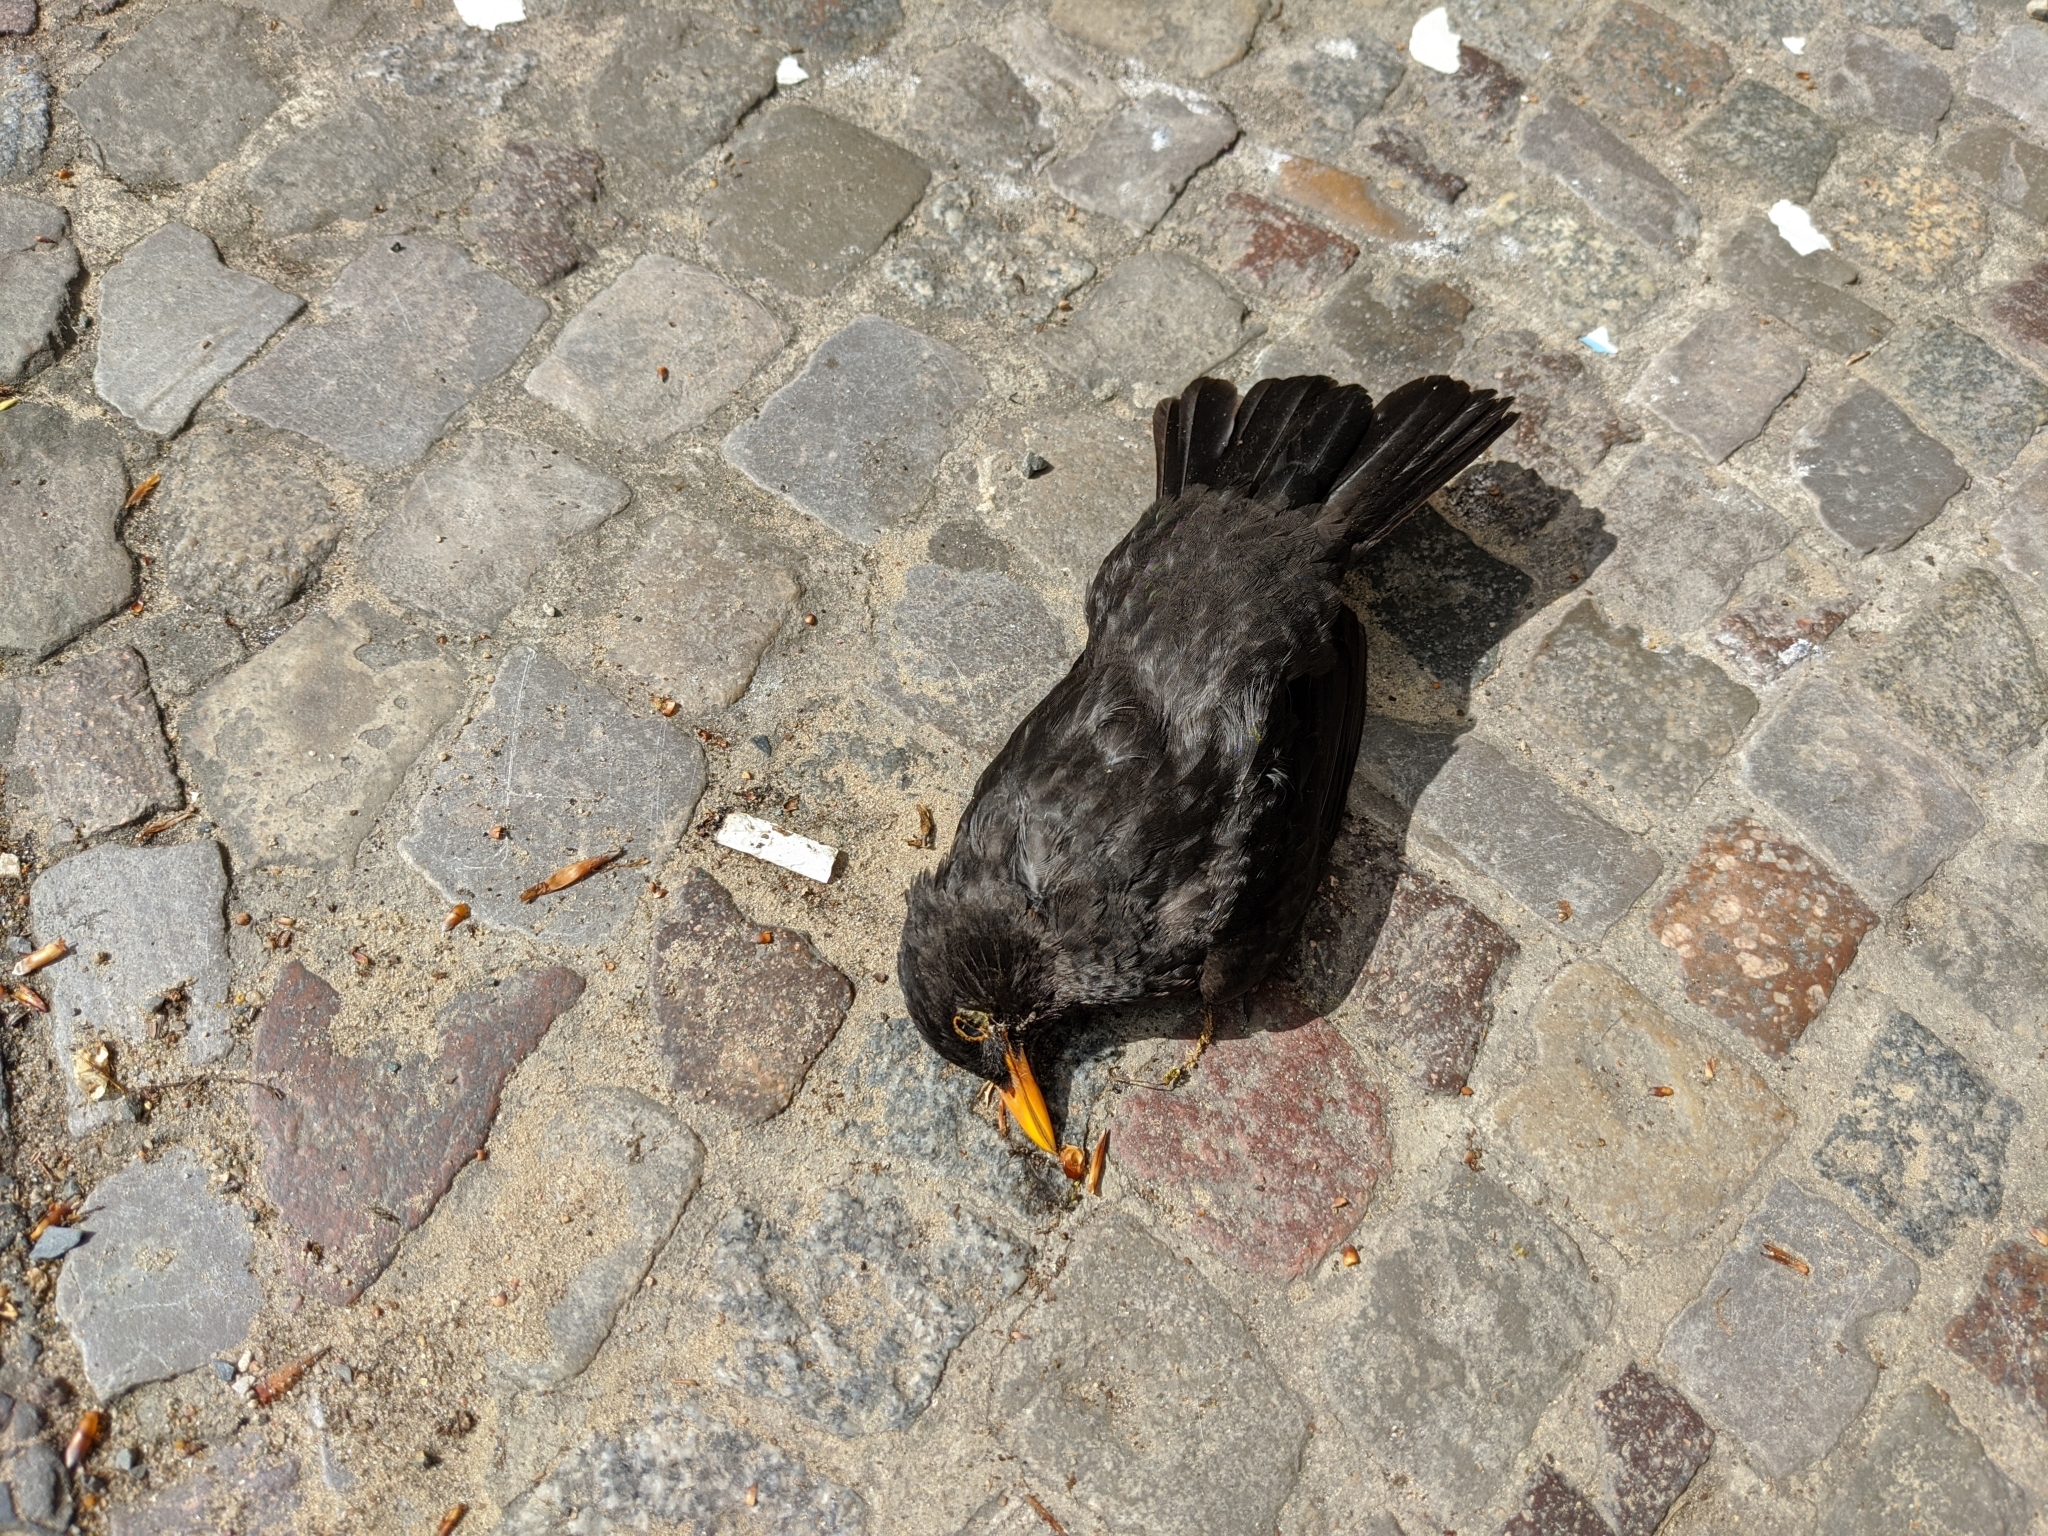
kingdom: Animalia
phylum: Chordata
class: Aves
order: Passeriformes
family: Turdidae
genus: Turdus
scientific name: Turdus merula
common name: Common blackbird
